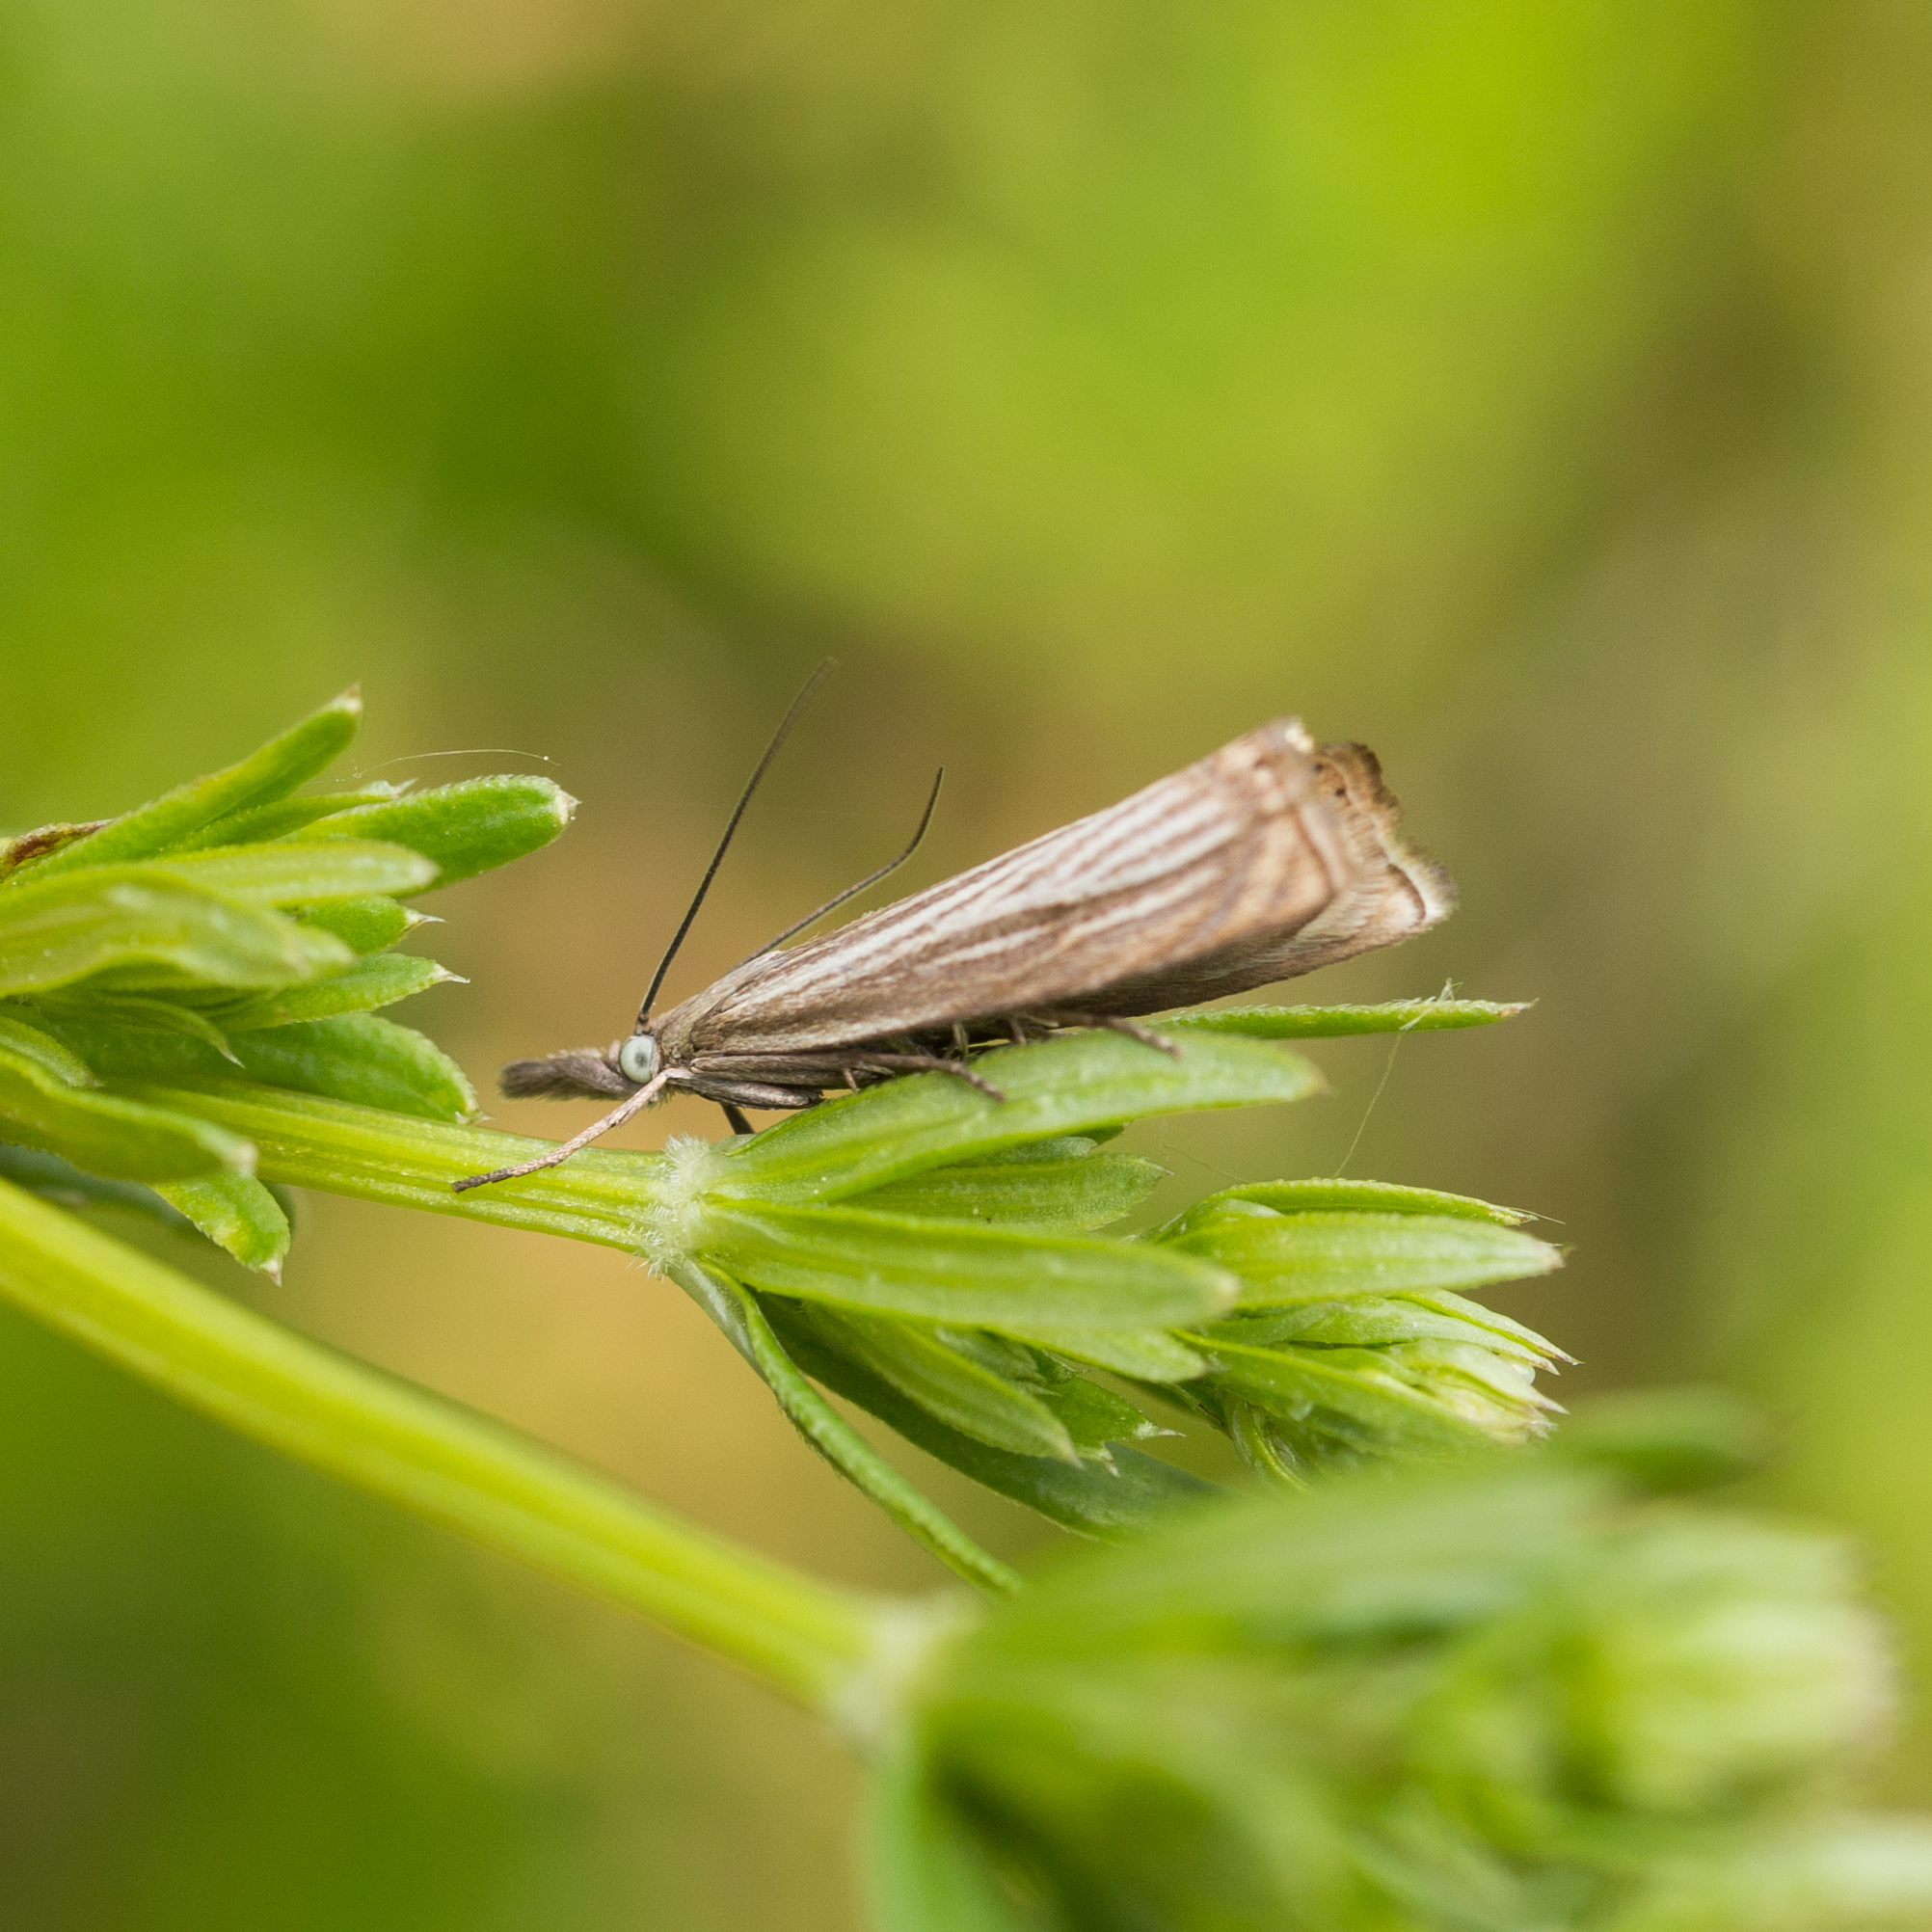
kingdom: Animalia
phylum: Arthropoda
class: Insecta
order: Lepidoptera
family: Crambidae
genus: Chrysoteuchia
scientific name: Chrysoteuchia culmella
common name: Garden grass-veneer
